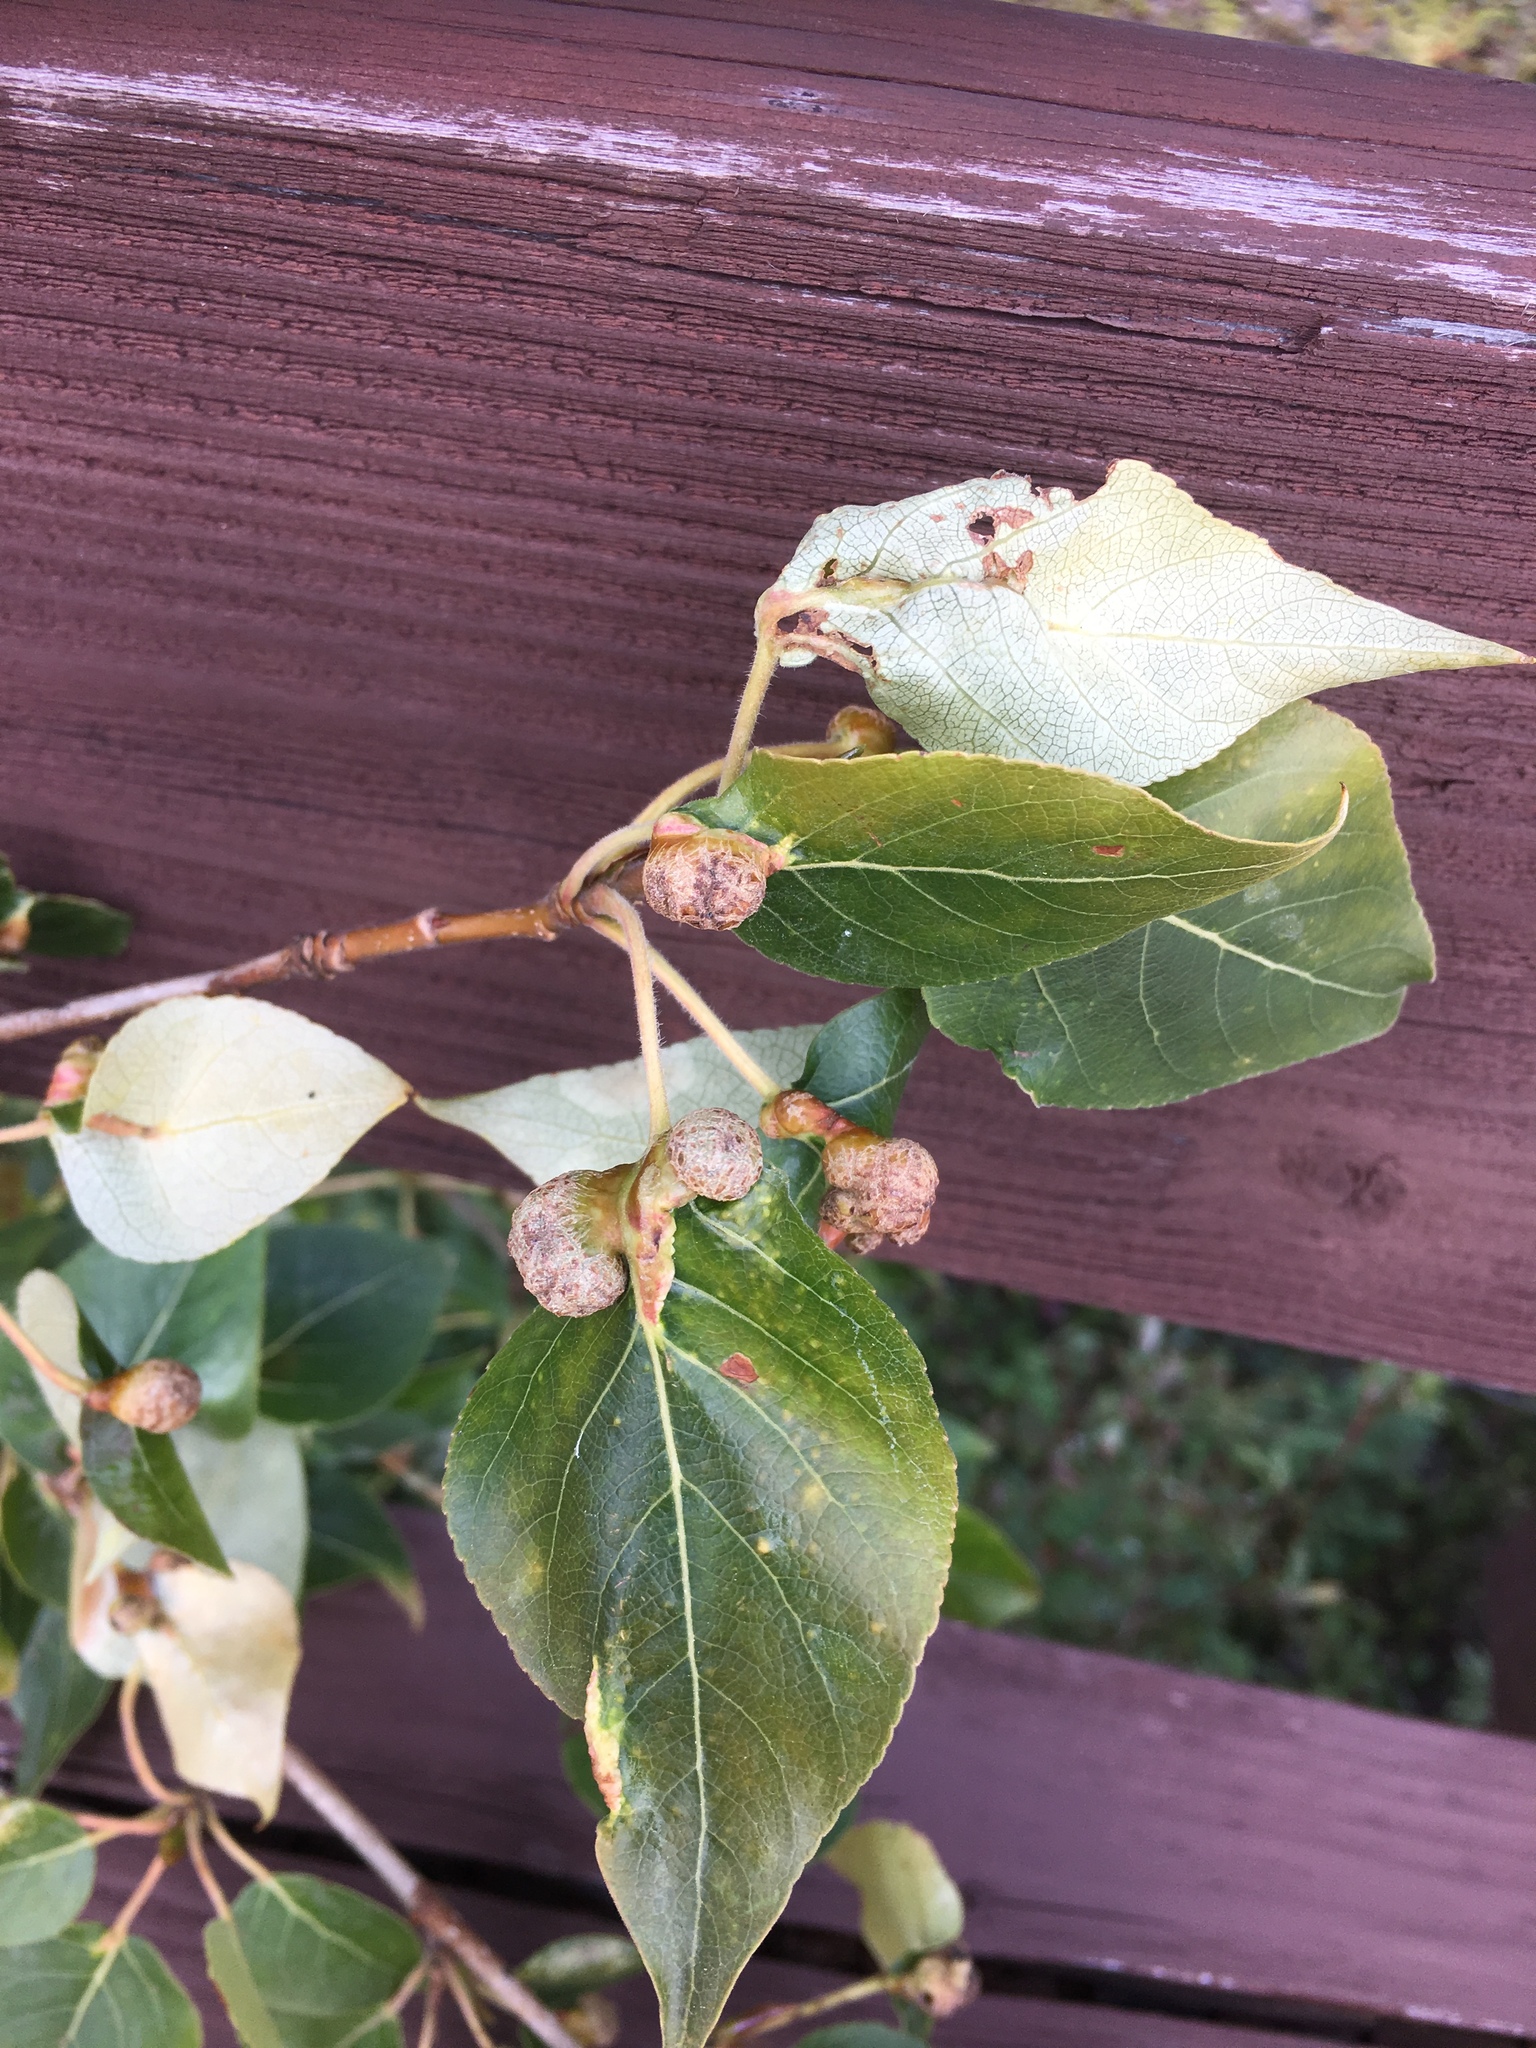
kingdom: Plantae
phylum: Tracheophyta
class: Magnoliopsida
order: Malpighiales
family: Salicaceae
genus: Populus
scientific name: Populus balsamifera
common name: Balsam poplar
